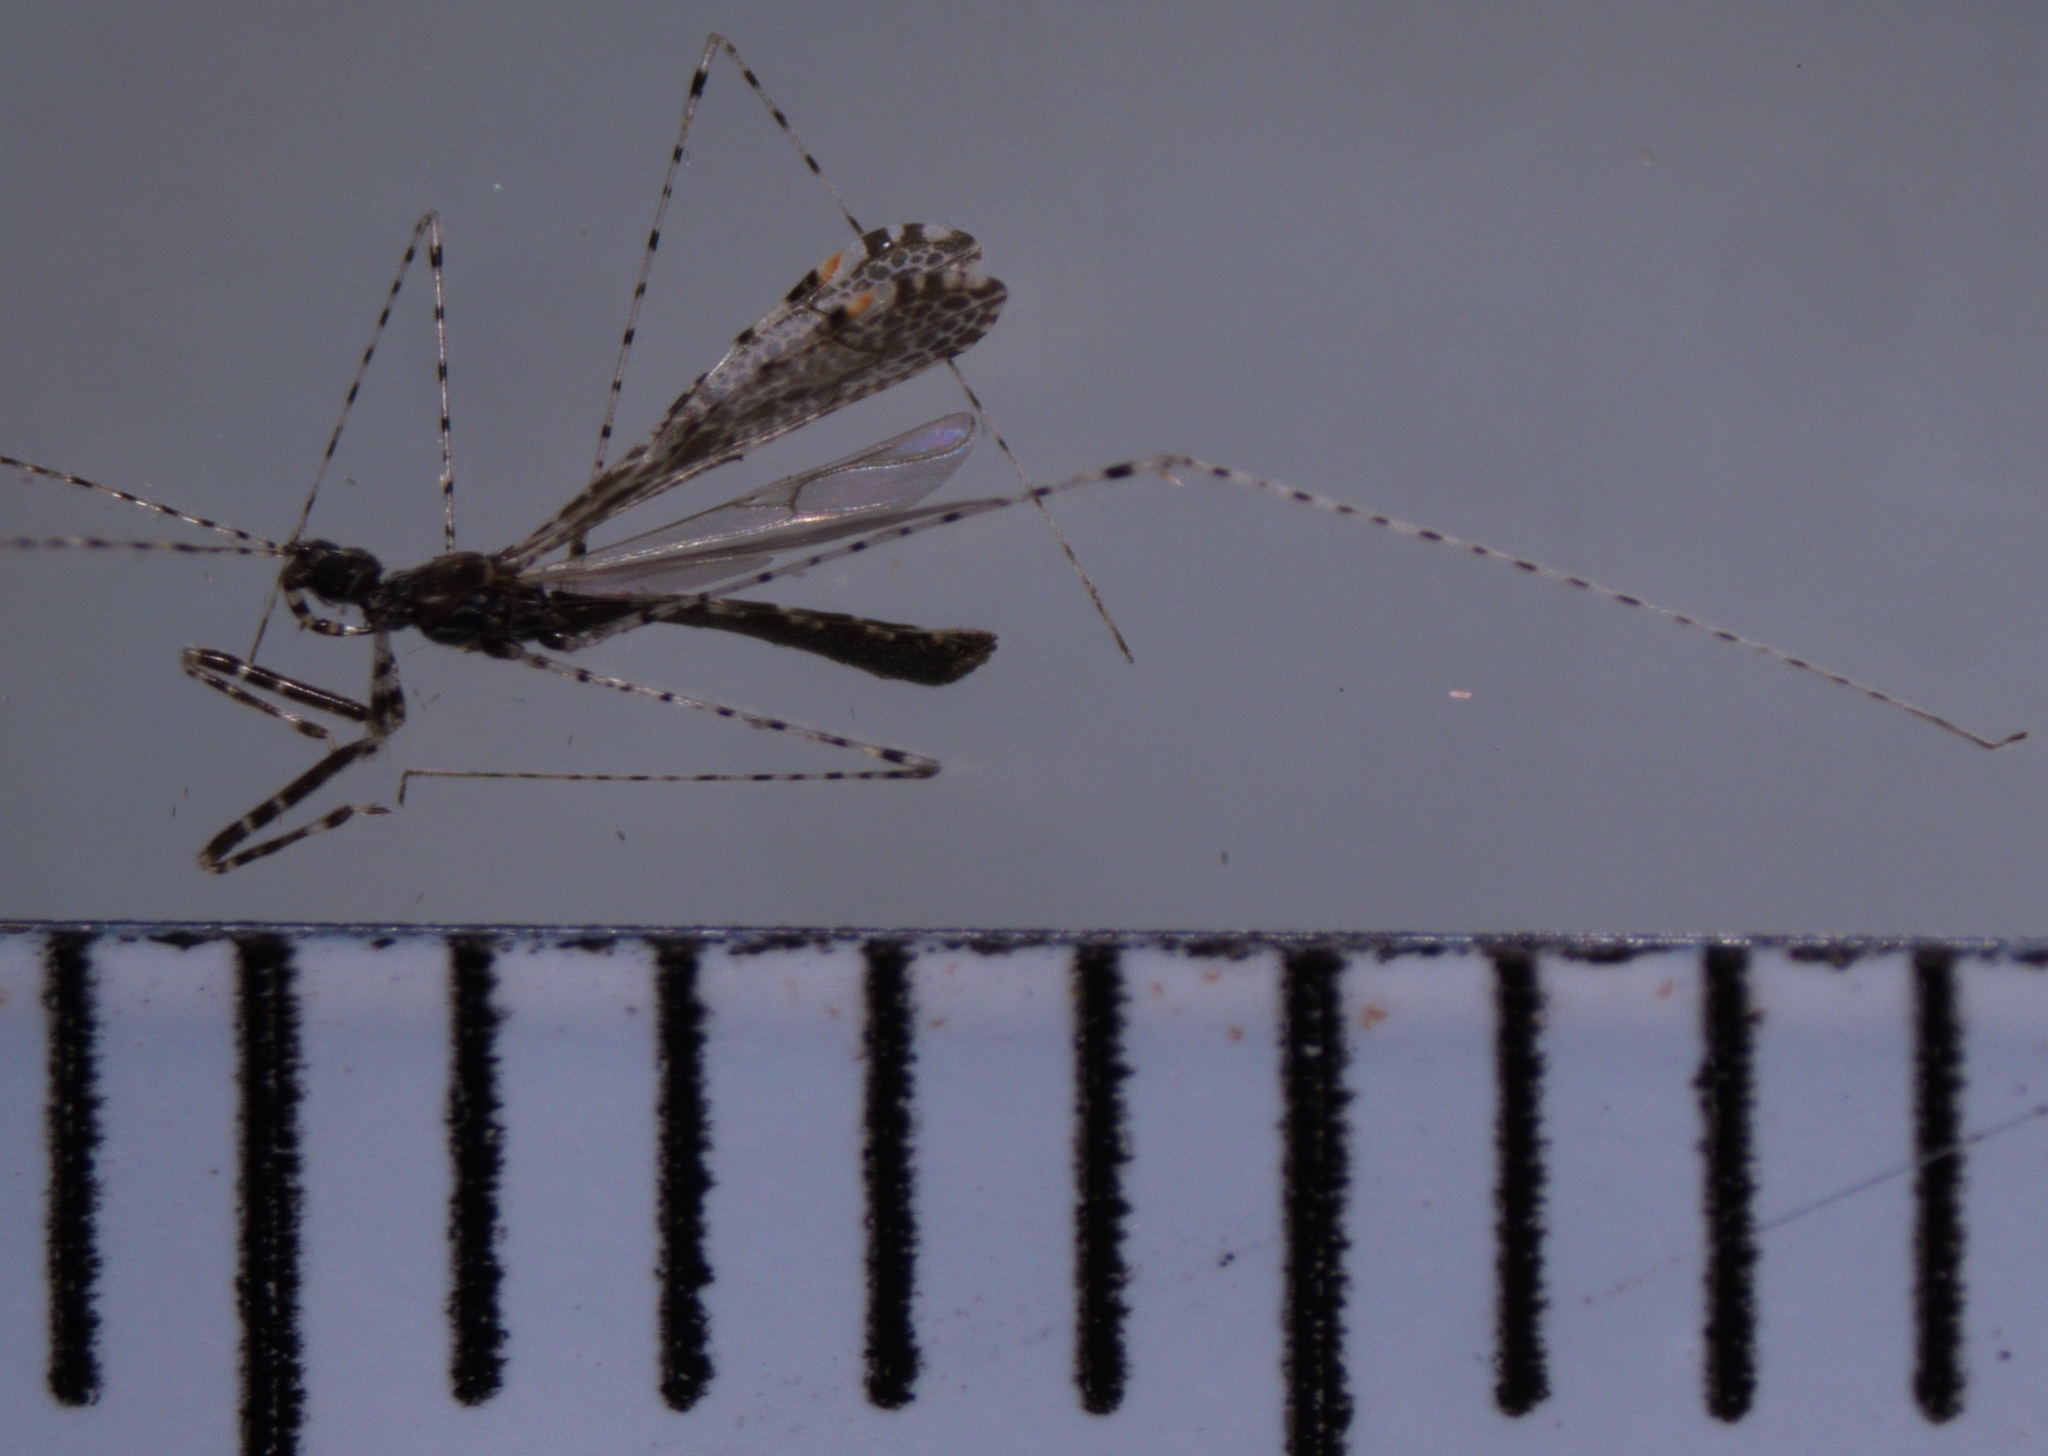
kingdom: Animalia
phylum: Arthropoda
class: Insecta
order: Hemiptera
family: Reduviidae
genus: Empicoris
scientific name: Empicoris minutus
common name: Thread-legged bug
